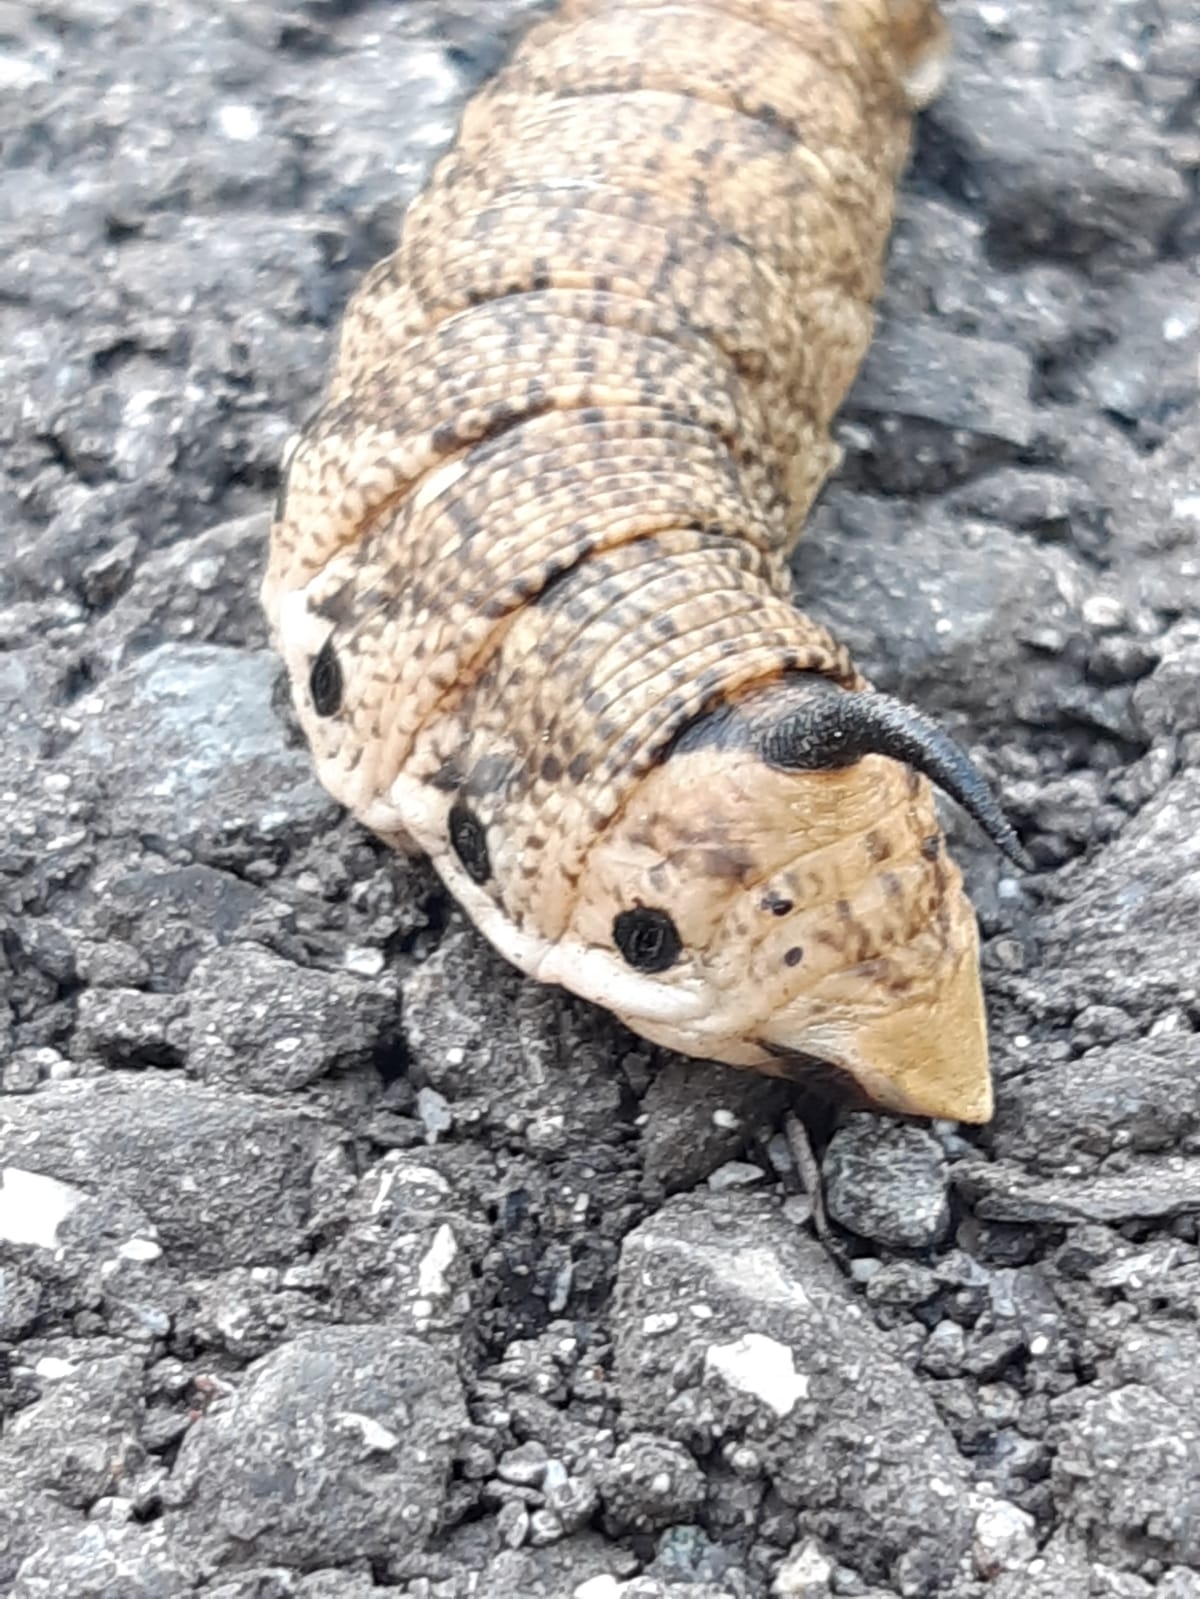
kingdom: Animalia
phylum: Arthropoda
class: Insecta
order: Lepidoptera
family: Sphingidae
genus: Agrius
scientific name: Agrius convolvuli
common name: Convolvulus hawkmoth
